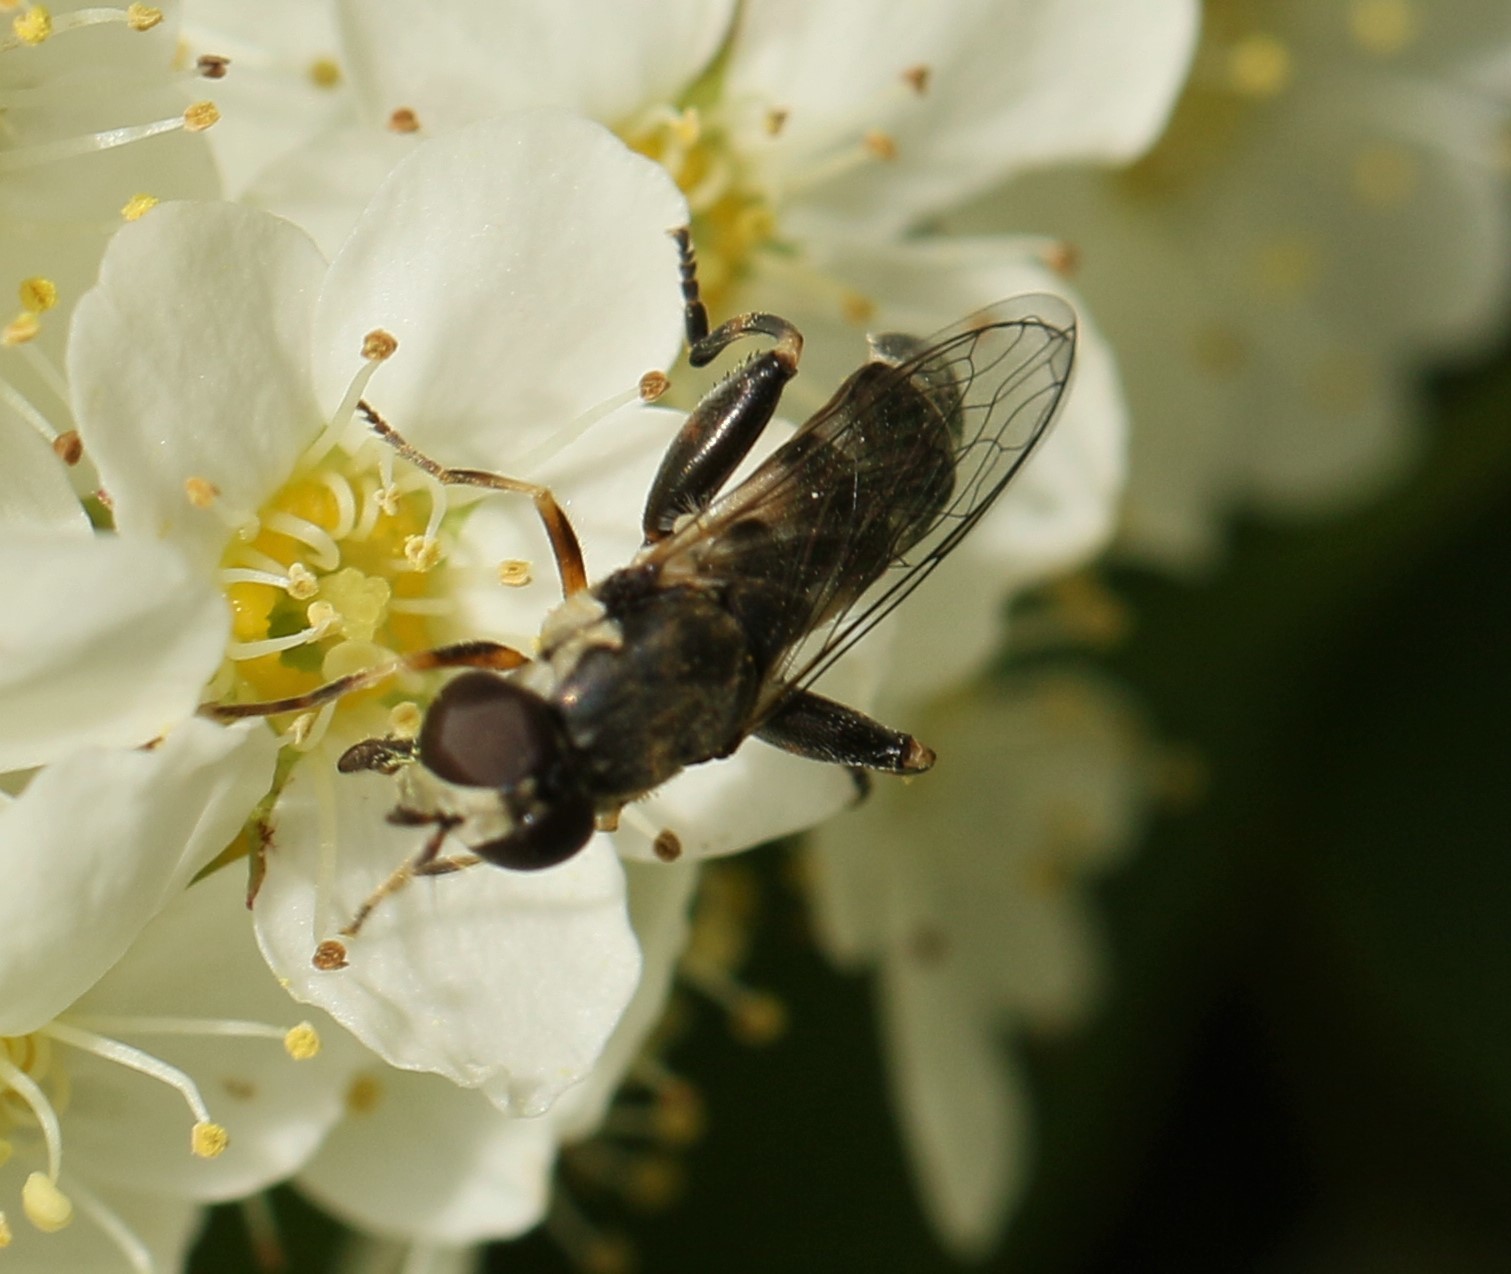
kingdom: Animalia
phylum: Arthropoda
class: Insecta
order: Diptera
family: Syrphidae
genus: Syritta
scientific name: Syritta pipiens
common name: Hover fly
